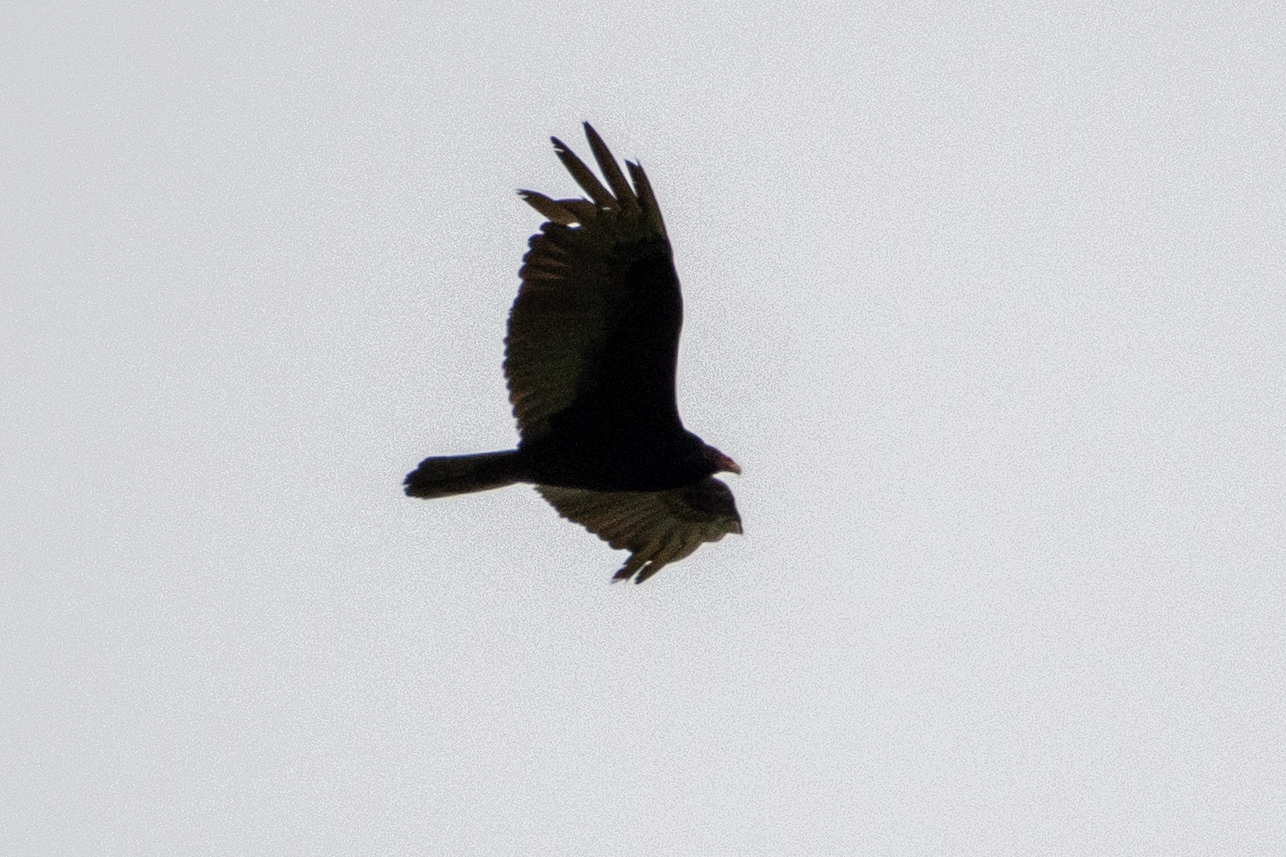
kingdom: Animalia
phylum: Chordata
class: Aves
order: Accipitriformes
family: Cathartidae
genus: Cathartes
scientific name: Cathartes aura
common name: Turkey vulture
